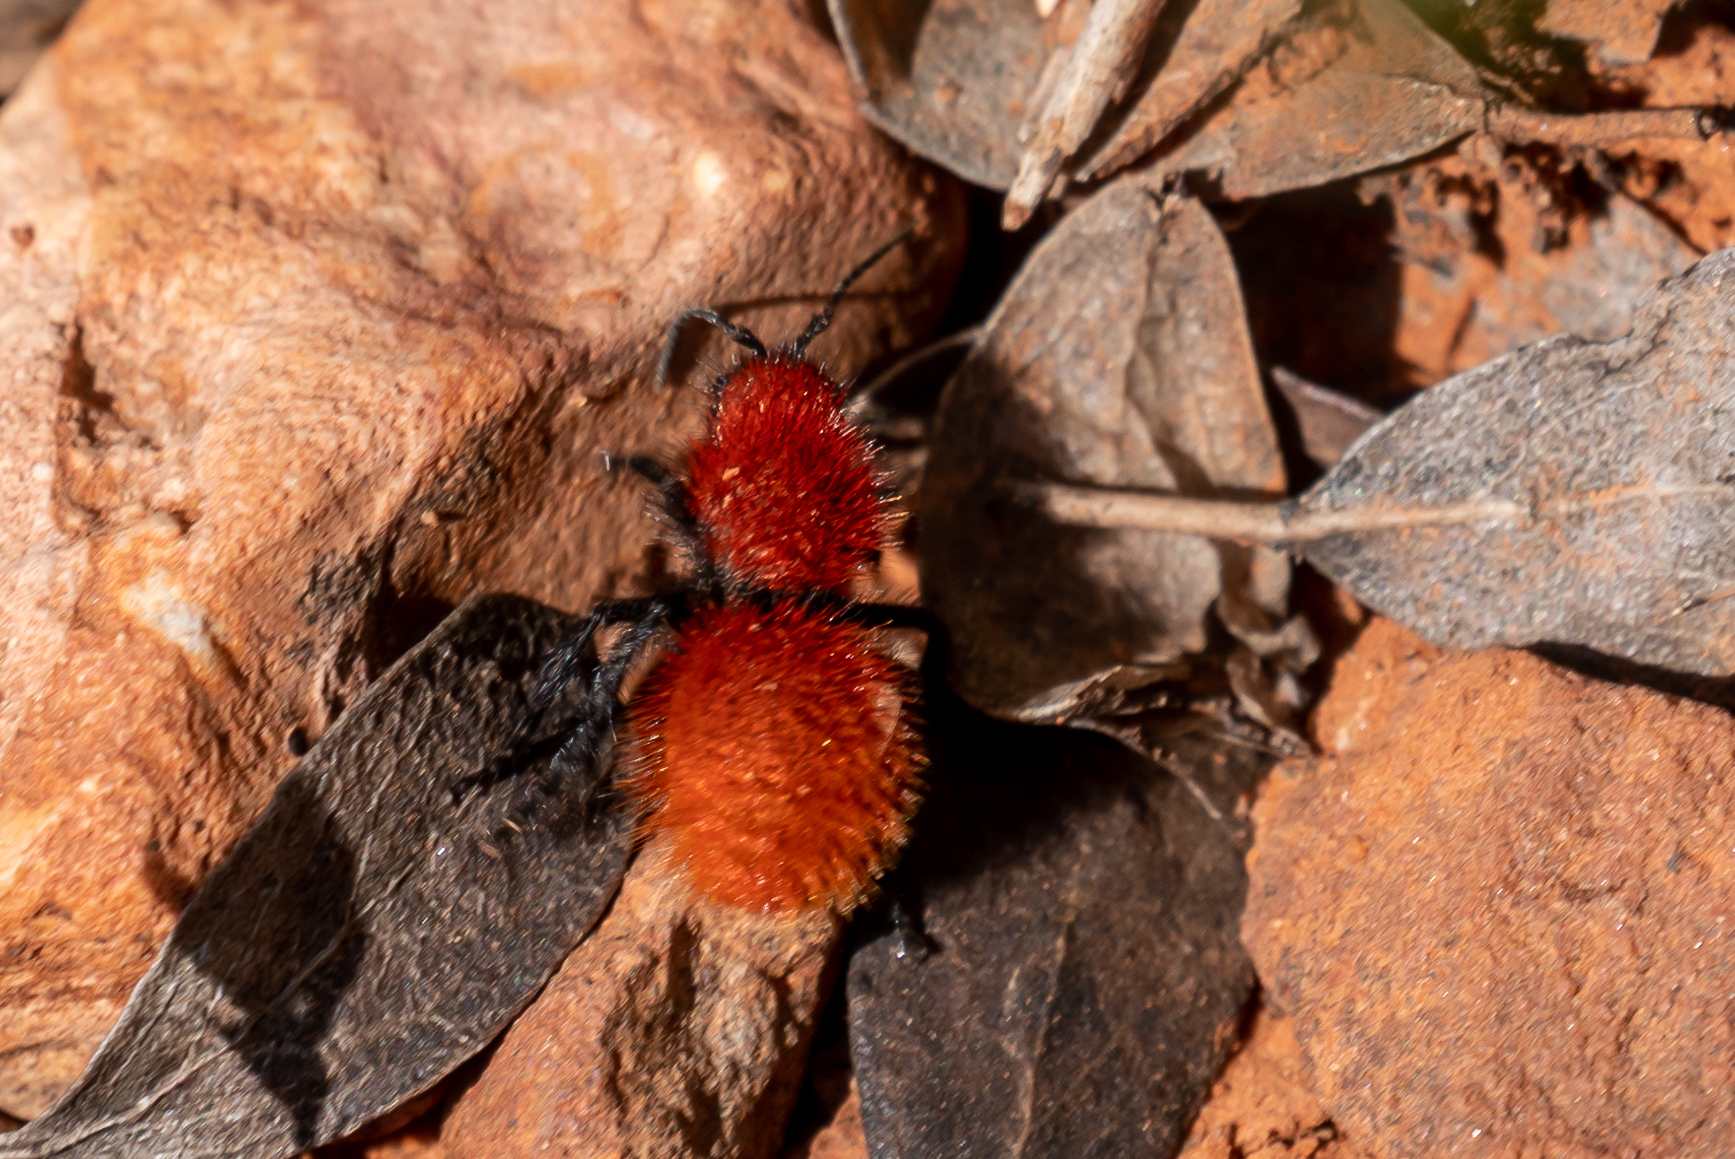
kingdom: Animalia
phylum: Arthropoda
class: Insecta
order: Hymenoptera
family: Mutillidae
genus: Dasymutilla
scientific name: Dasymutilla vestita
